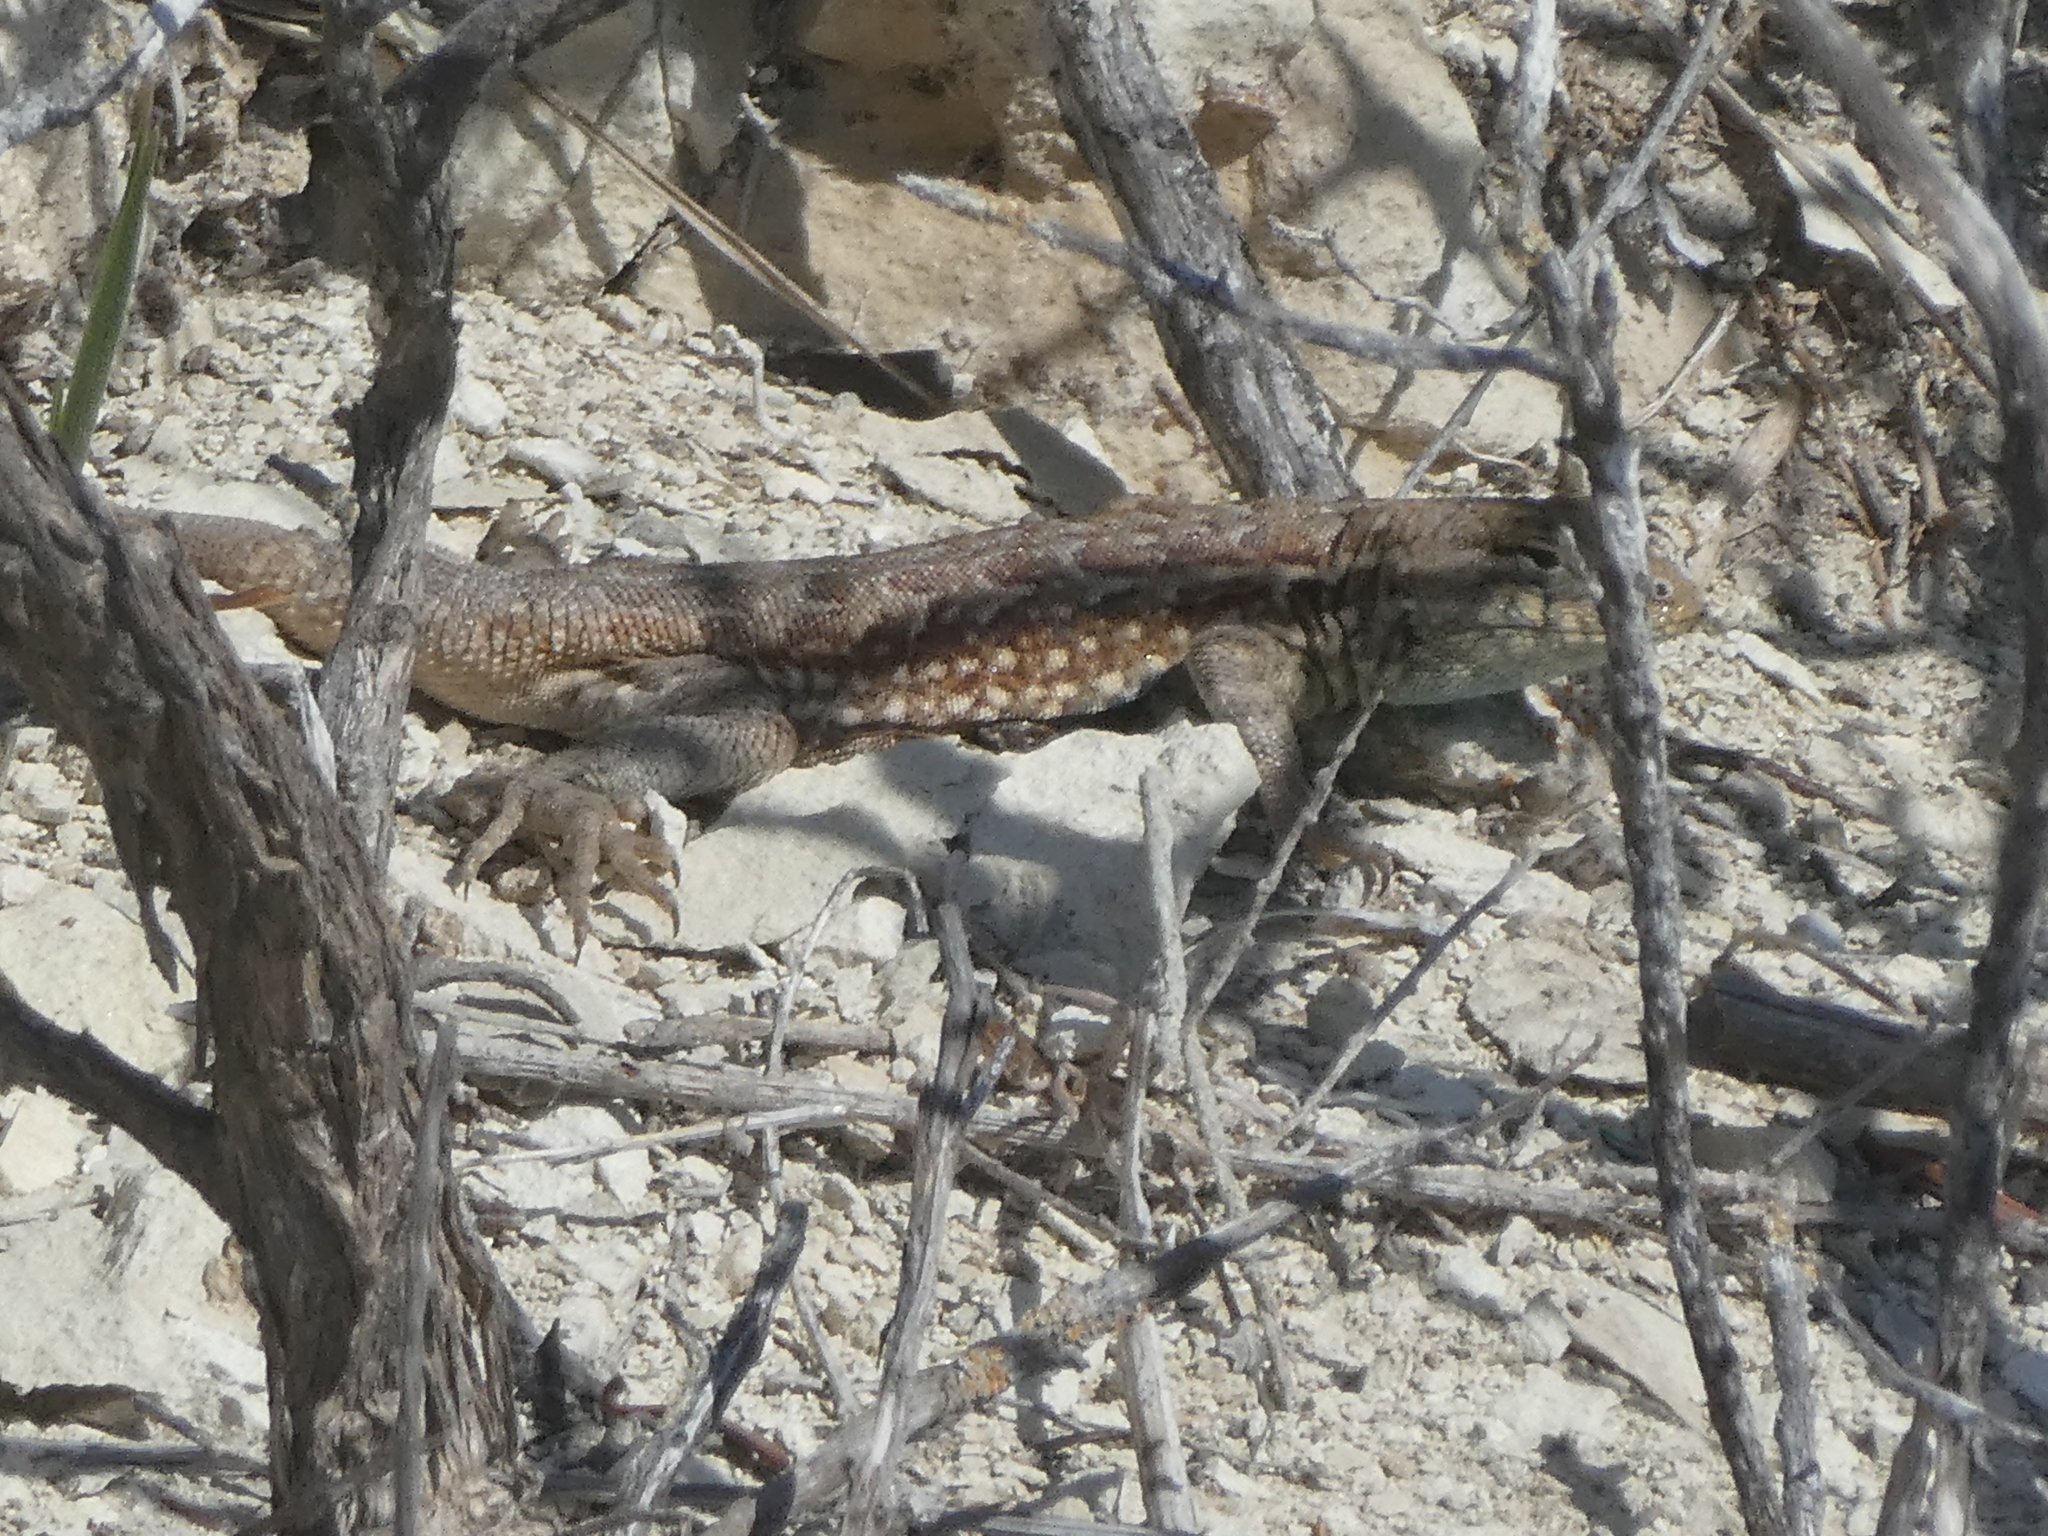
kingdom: Animalia
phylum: Chordata
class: Squamata
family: Phrynosomatidae
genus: Uta
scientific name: Uta stansburiana
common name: Side-blotched lizard
